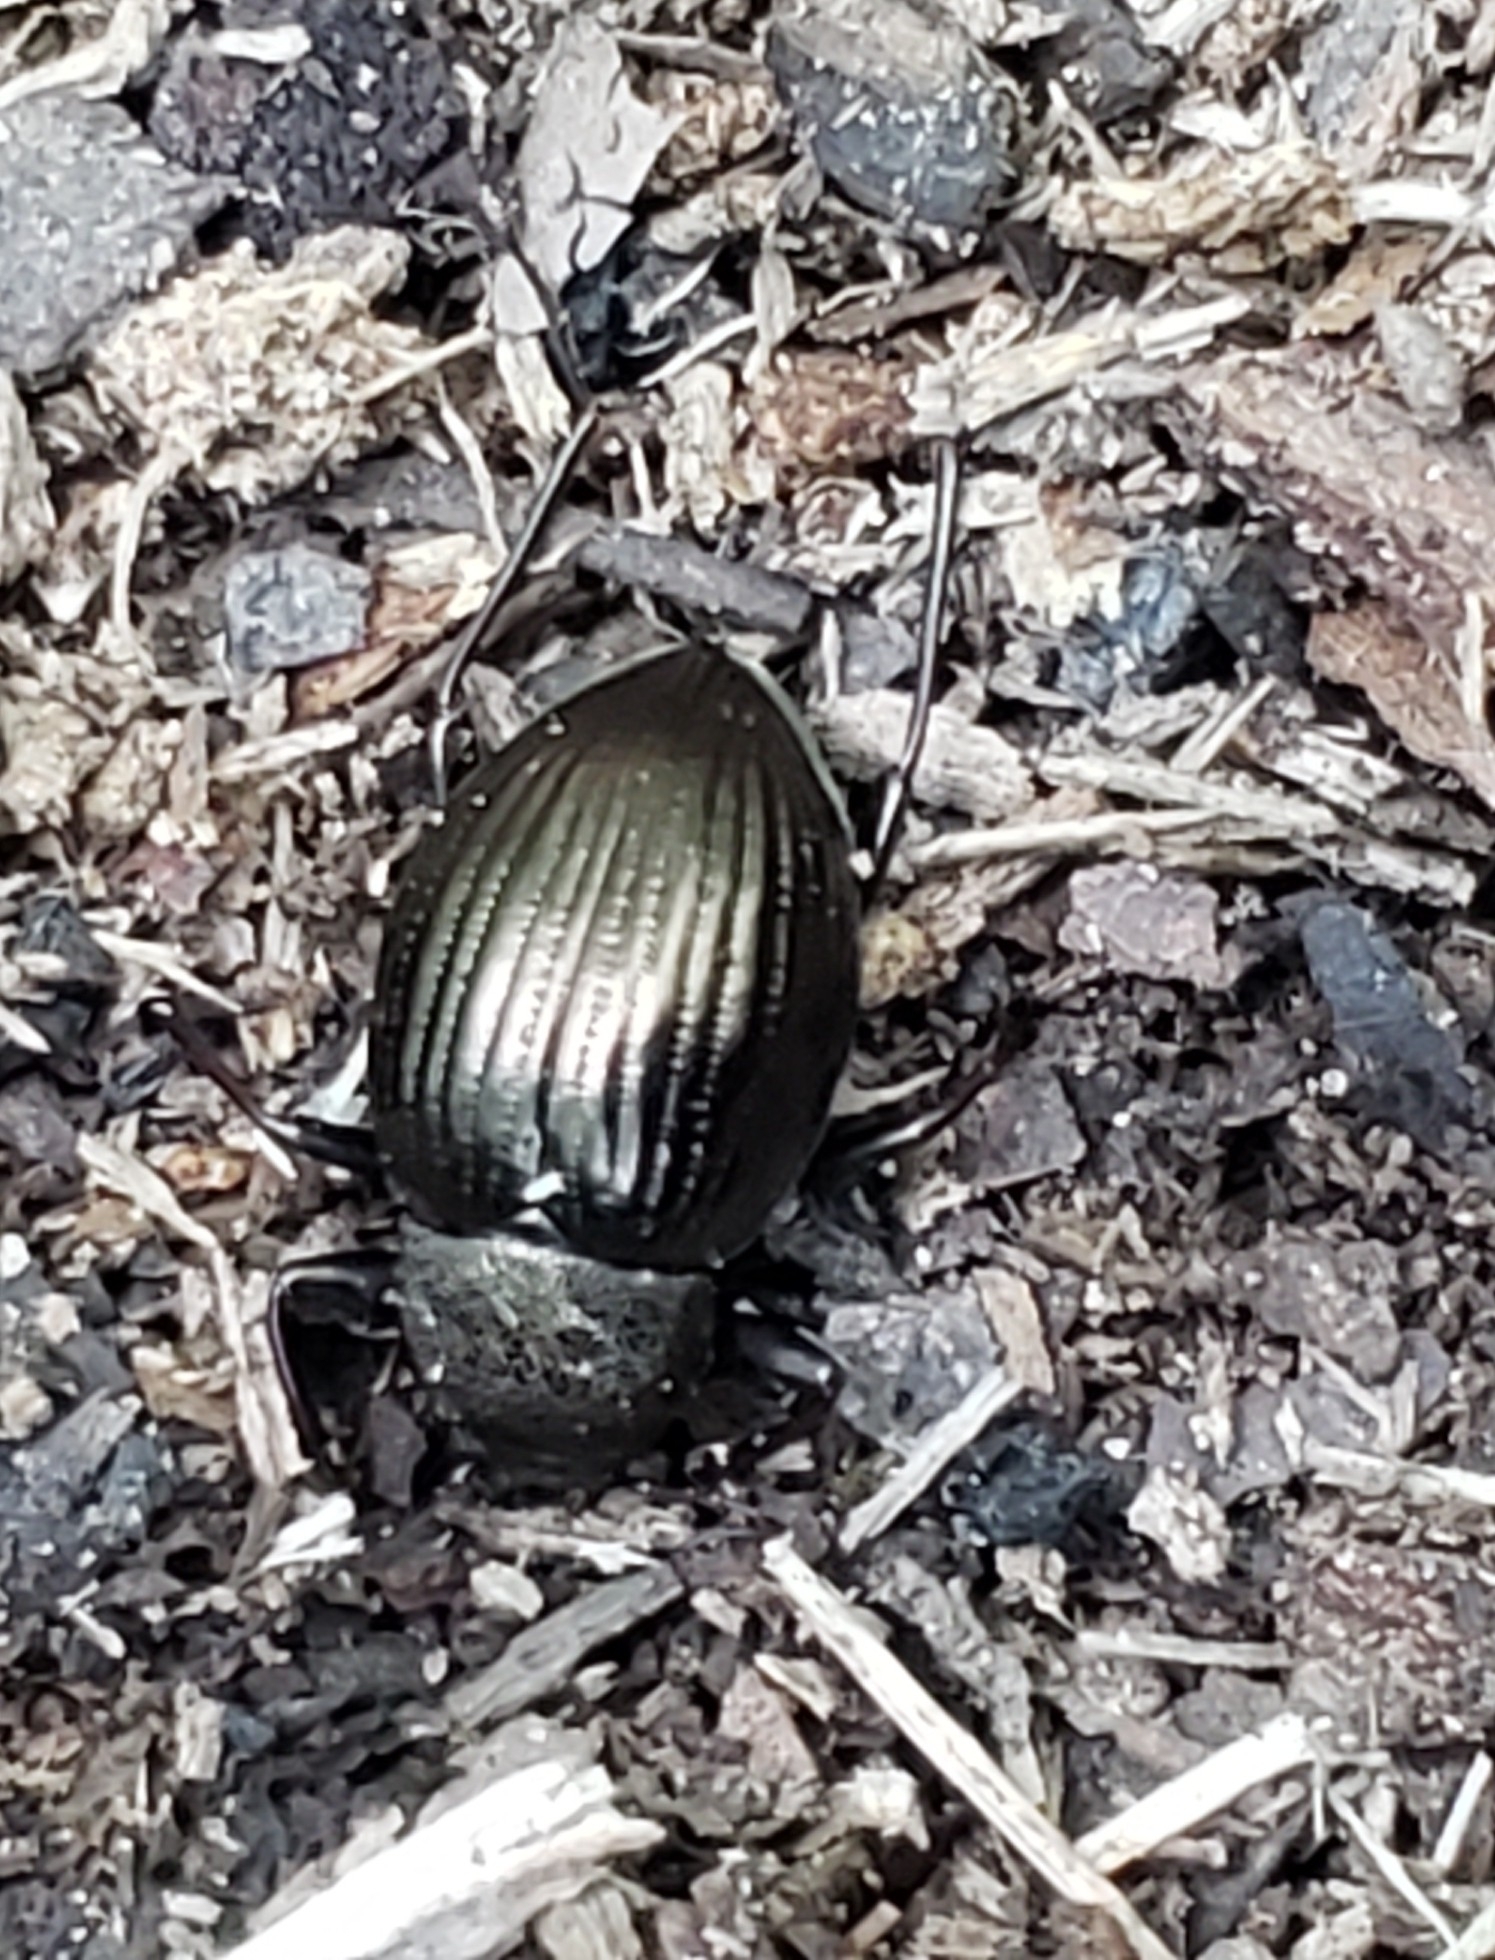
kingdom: Animalia
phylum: Arthropoda
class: Insecta
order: Coleoptera
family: Tenebrionidae
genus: Meracantha
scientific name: Meracantha contracta
